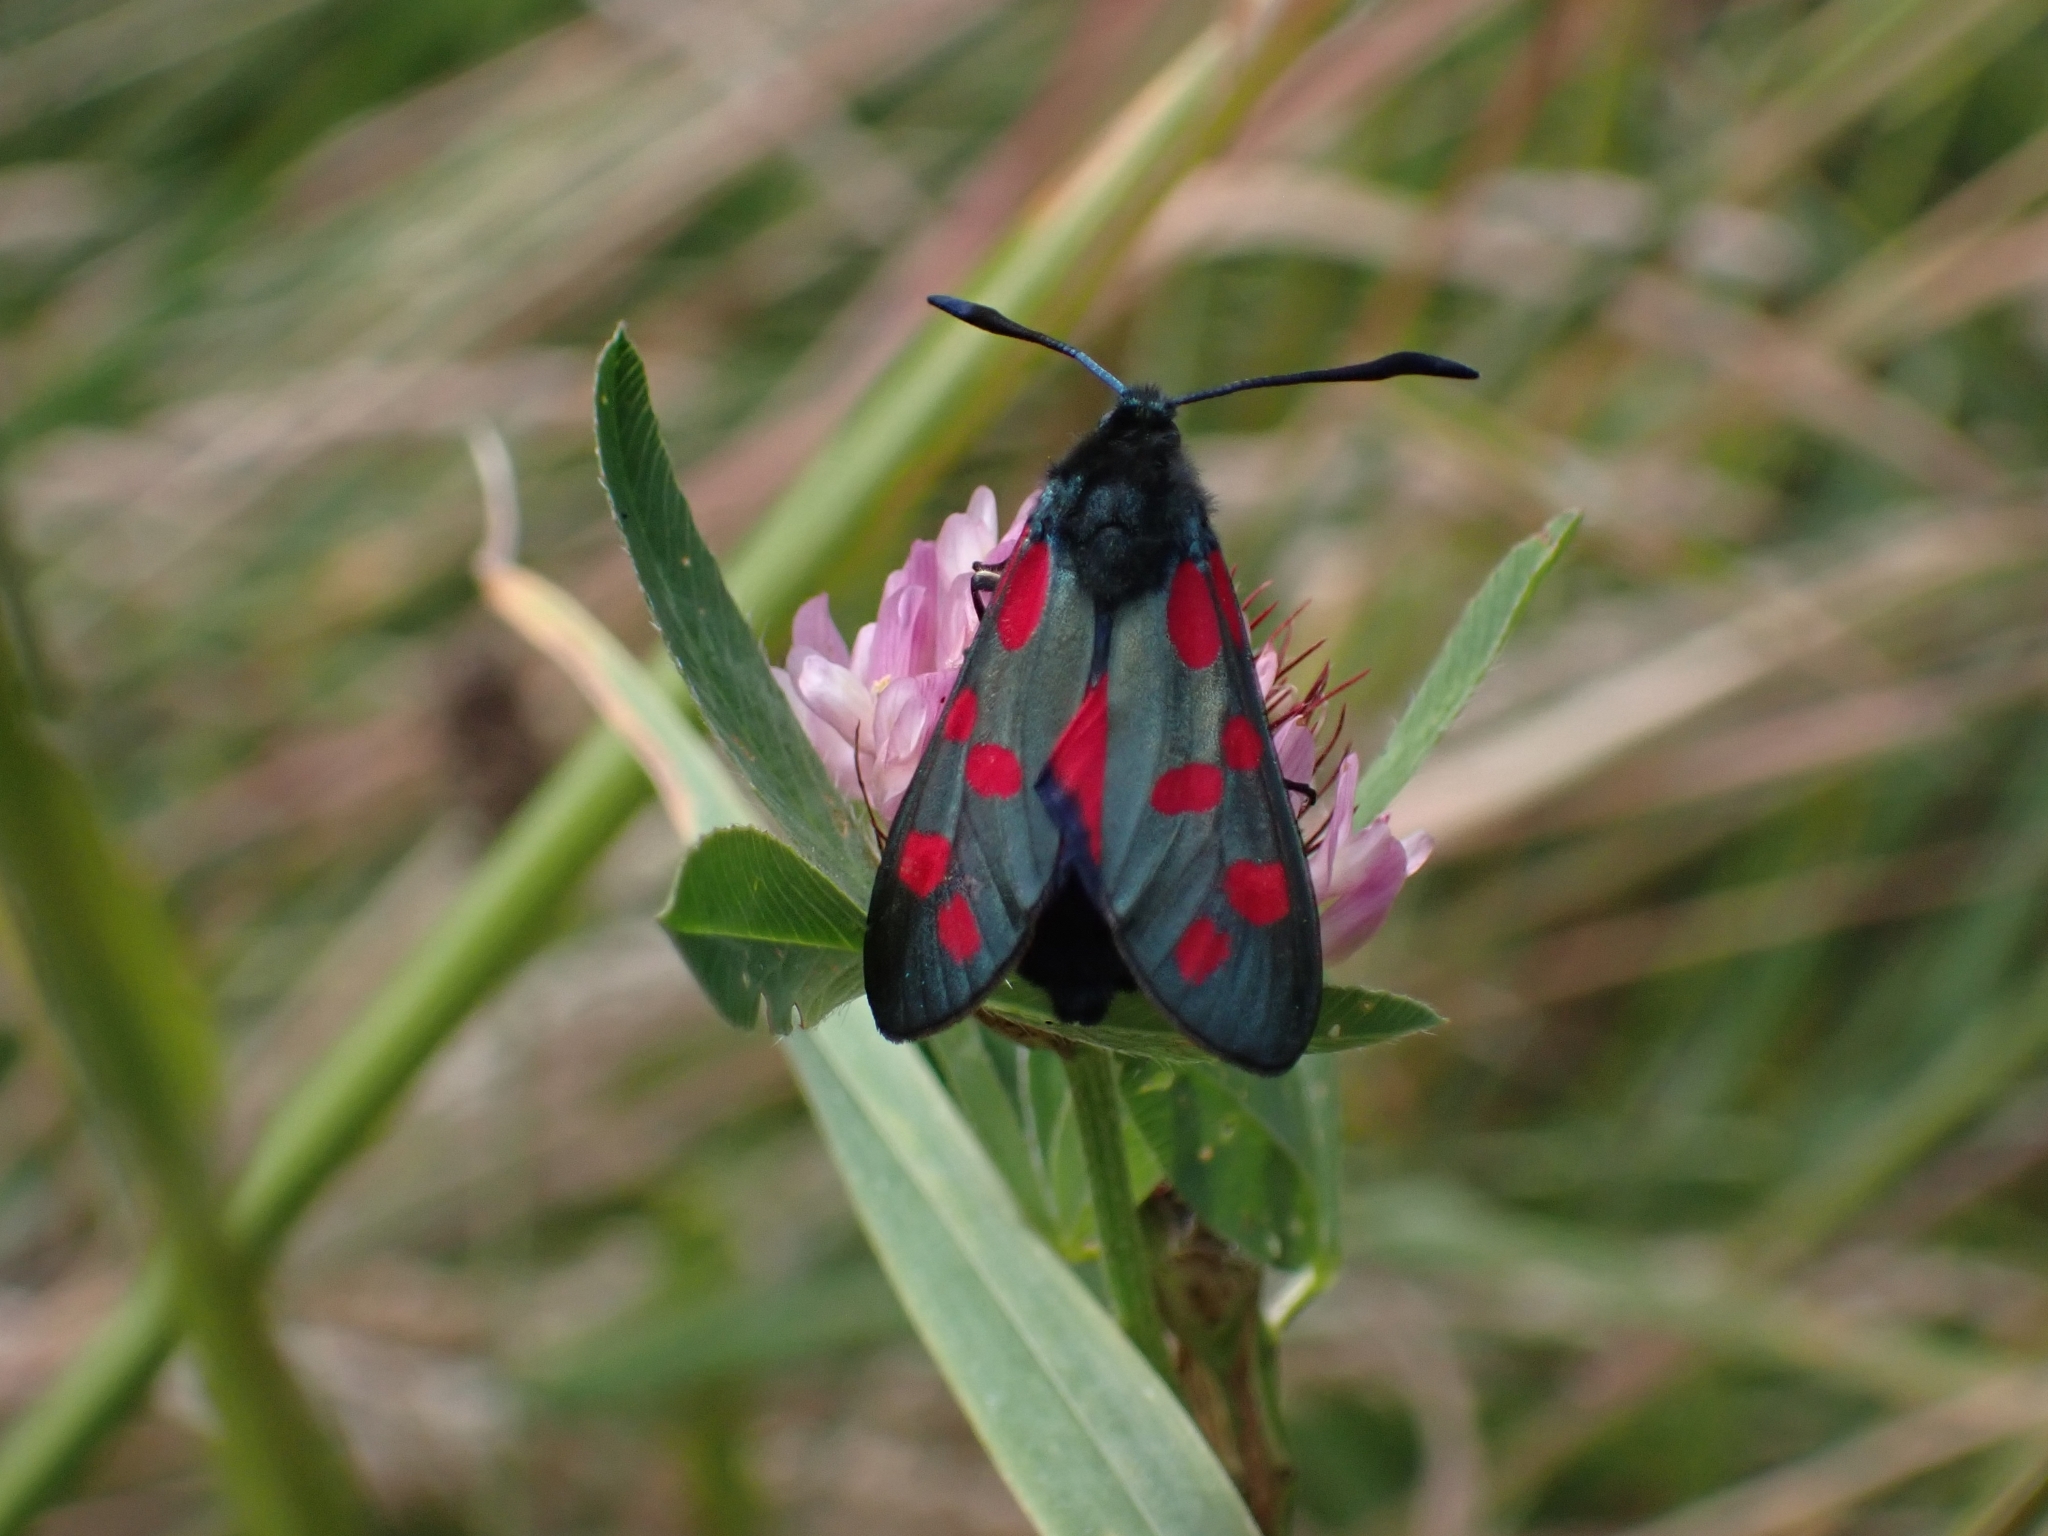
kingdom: Animalia
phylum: Arthropoda
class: Insecta
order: Lepidoptera
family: Zygaenidae
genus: Zygaena
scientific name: Zygaena filipendulae
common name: Six-spot burnet
